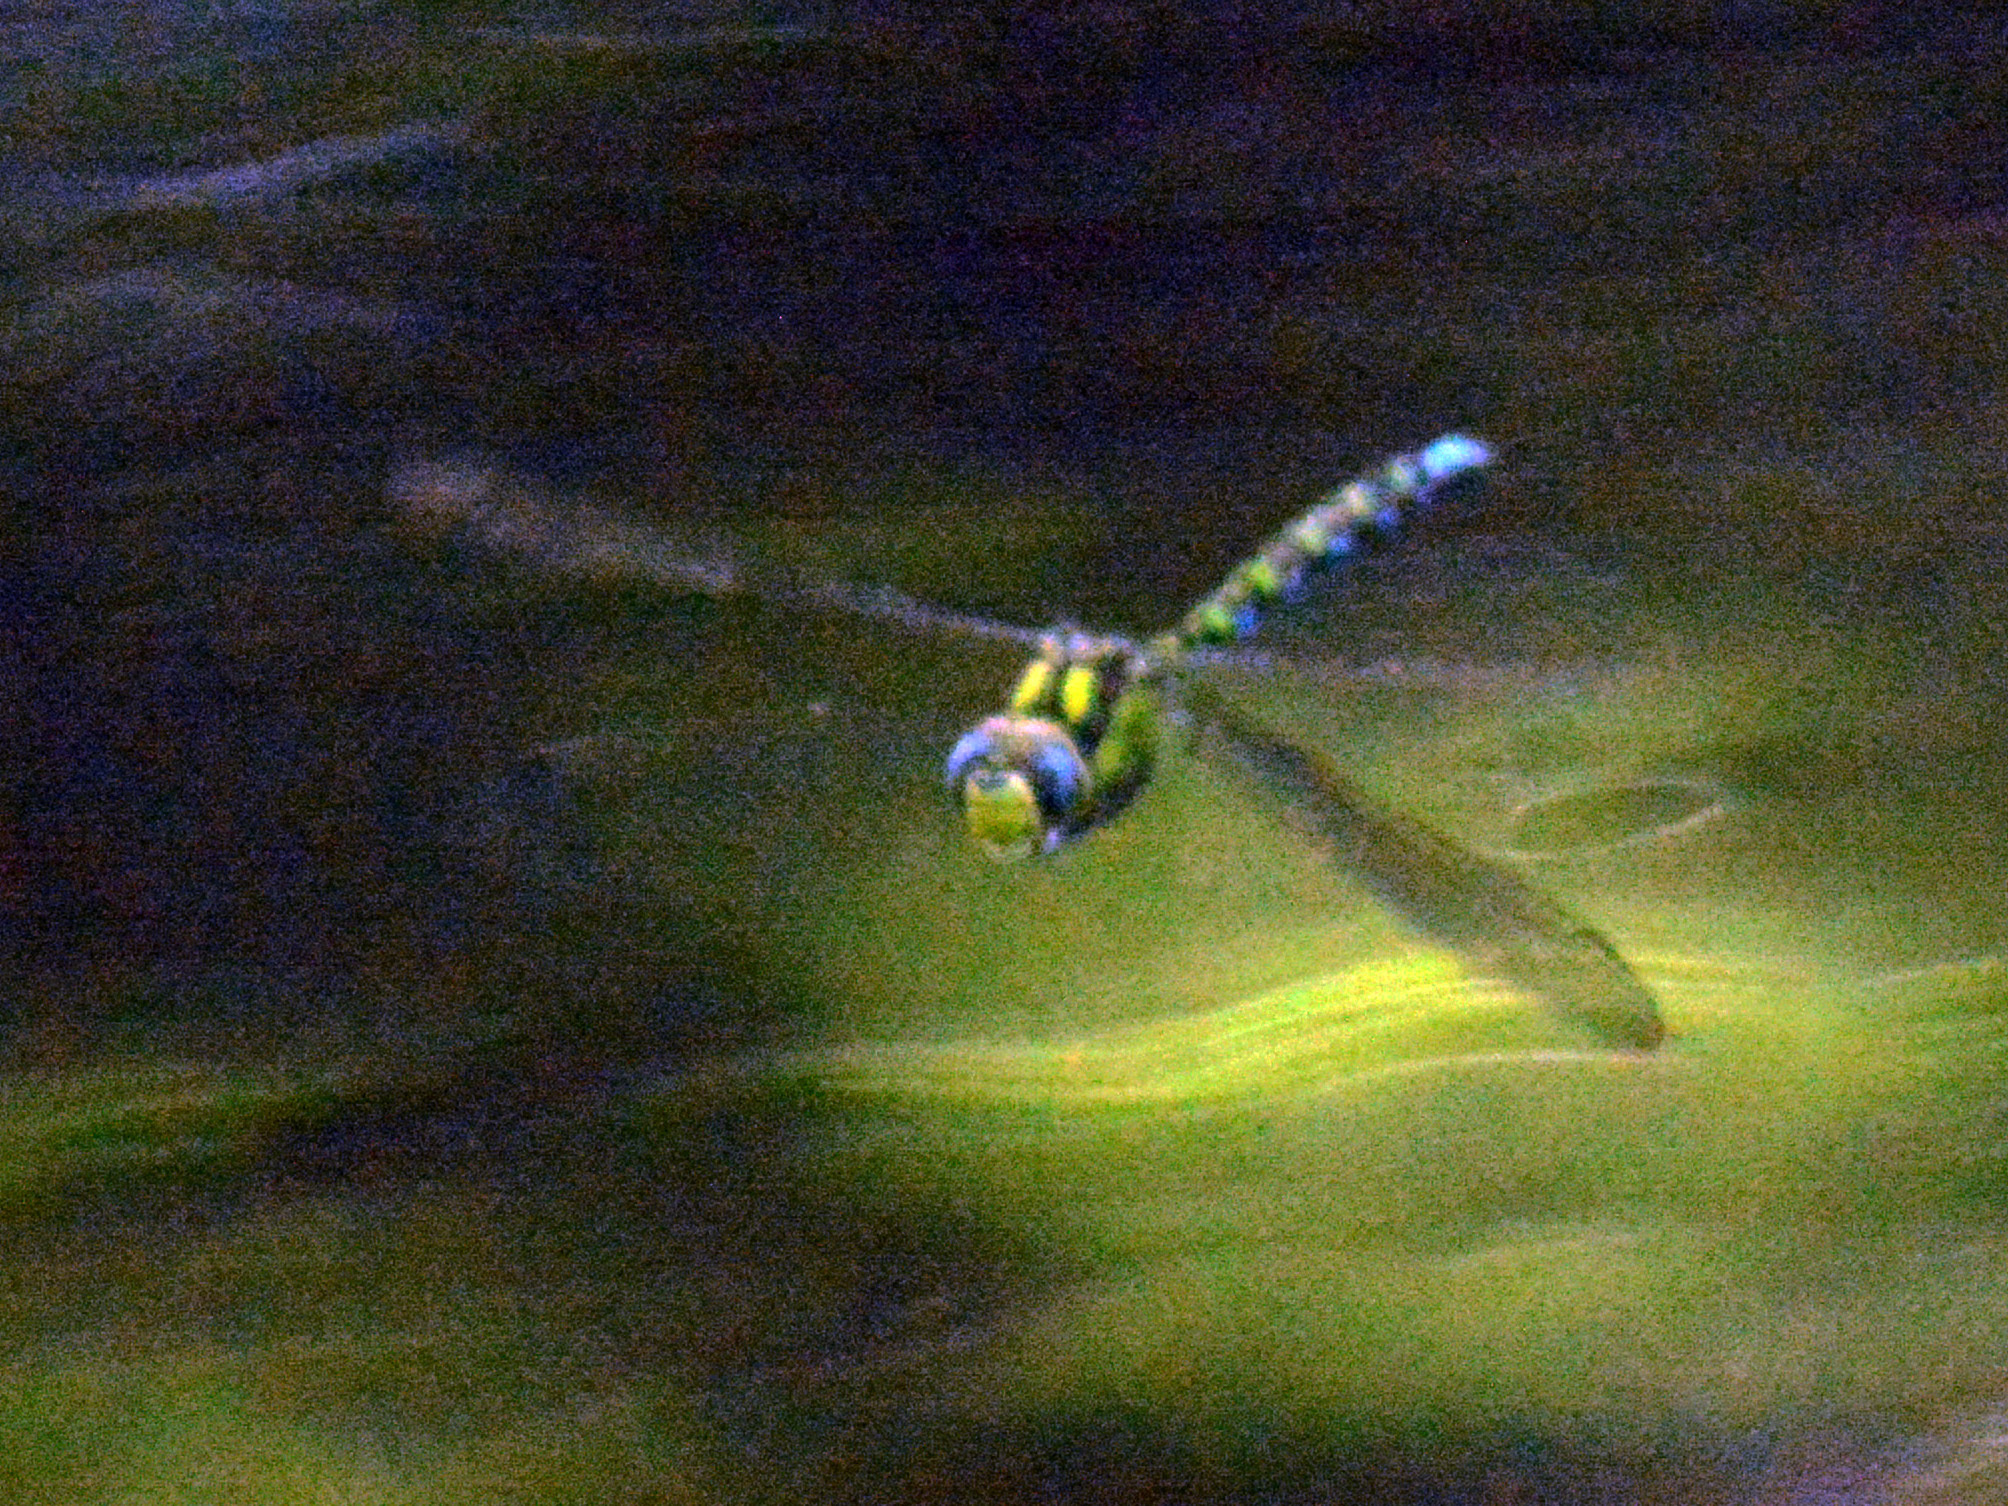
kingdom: Animalia
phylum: Arthropoda
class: Insecta
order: Odonata
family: Aeshnidae
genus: Aeshna
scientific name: Aeshna cyanea
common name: Southern hawker
